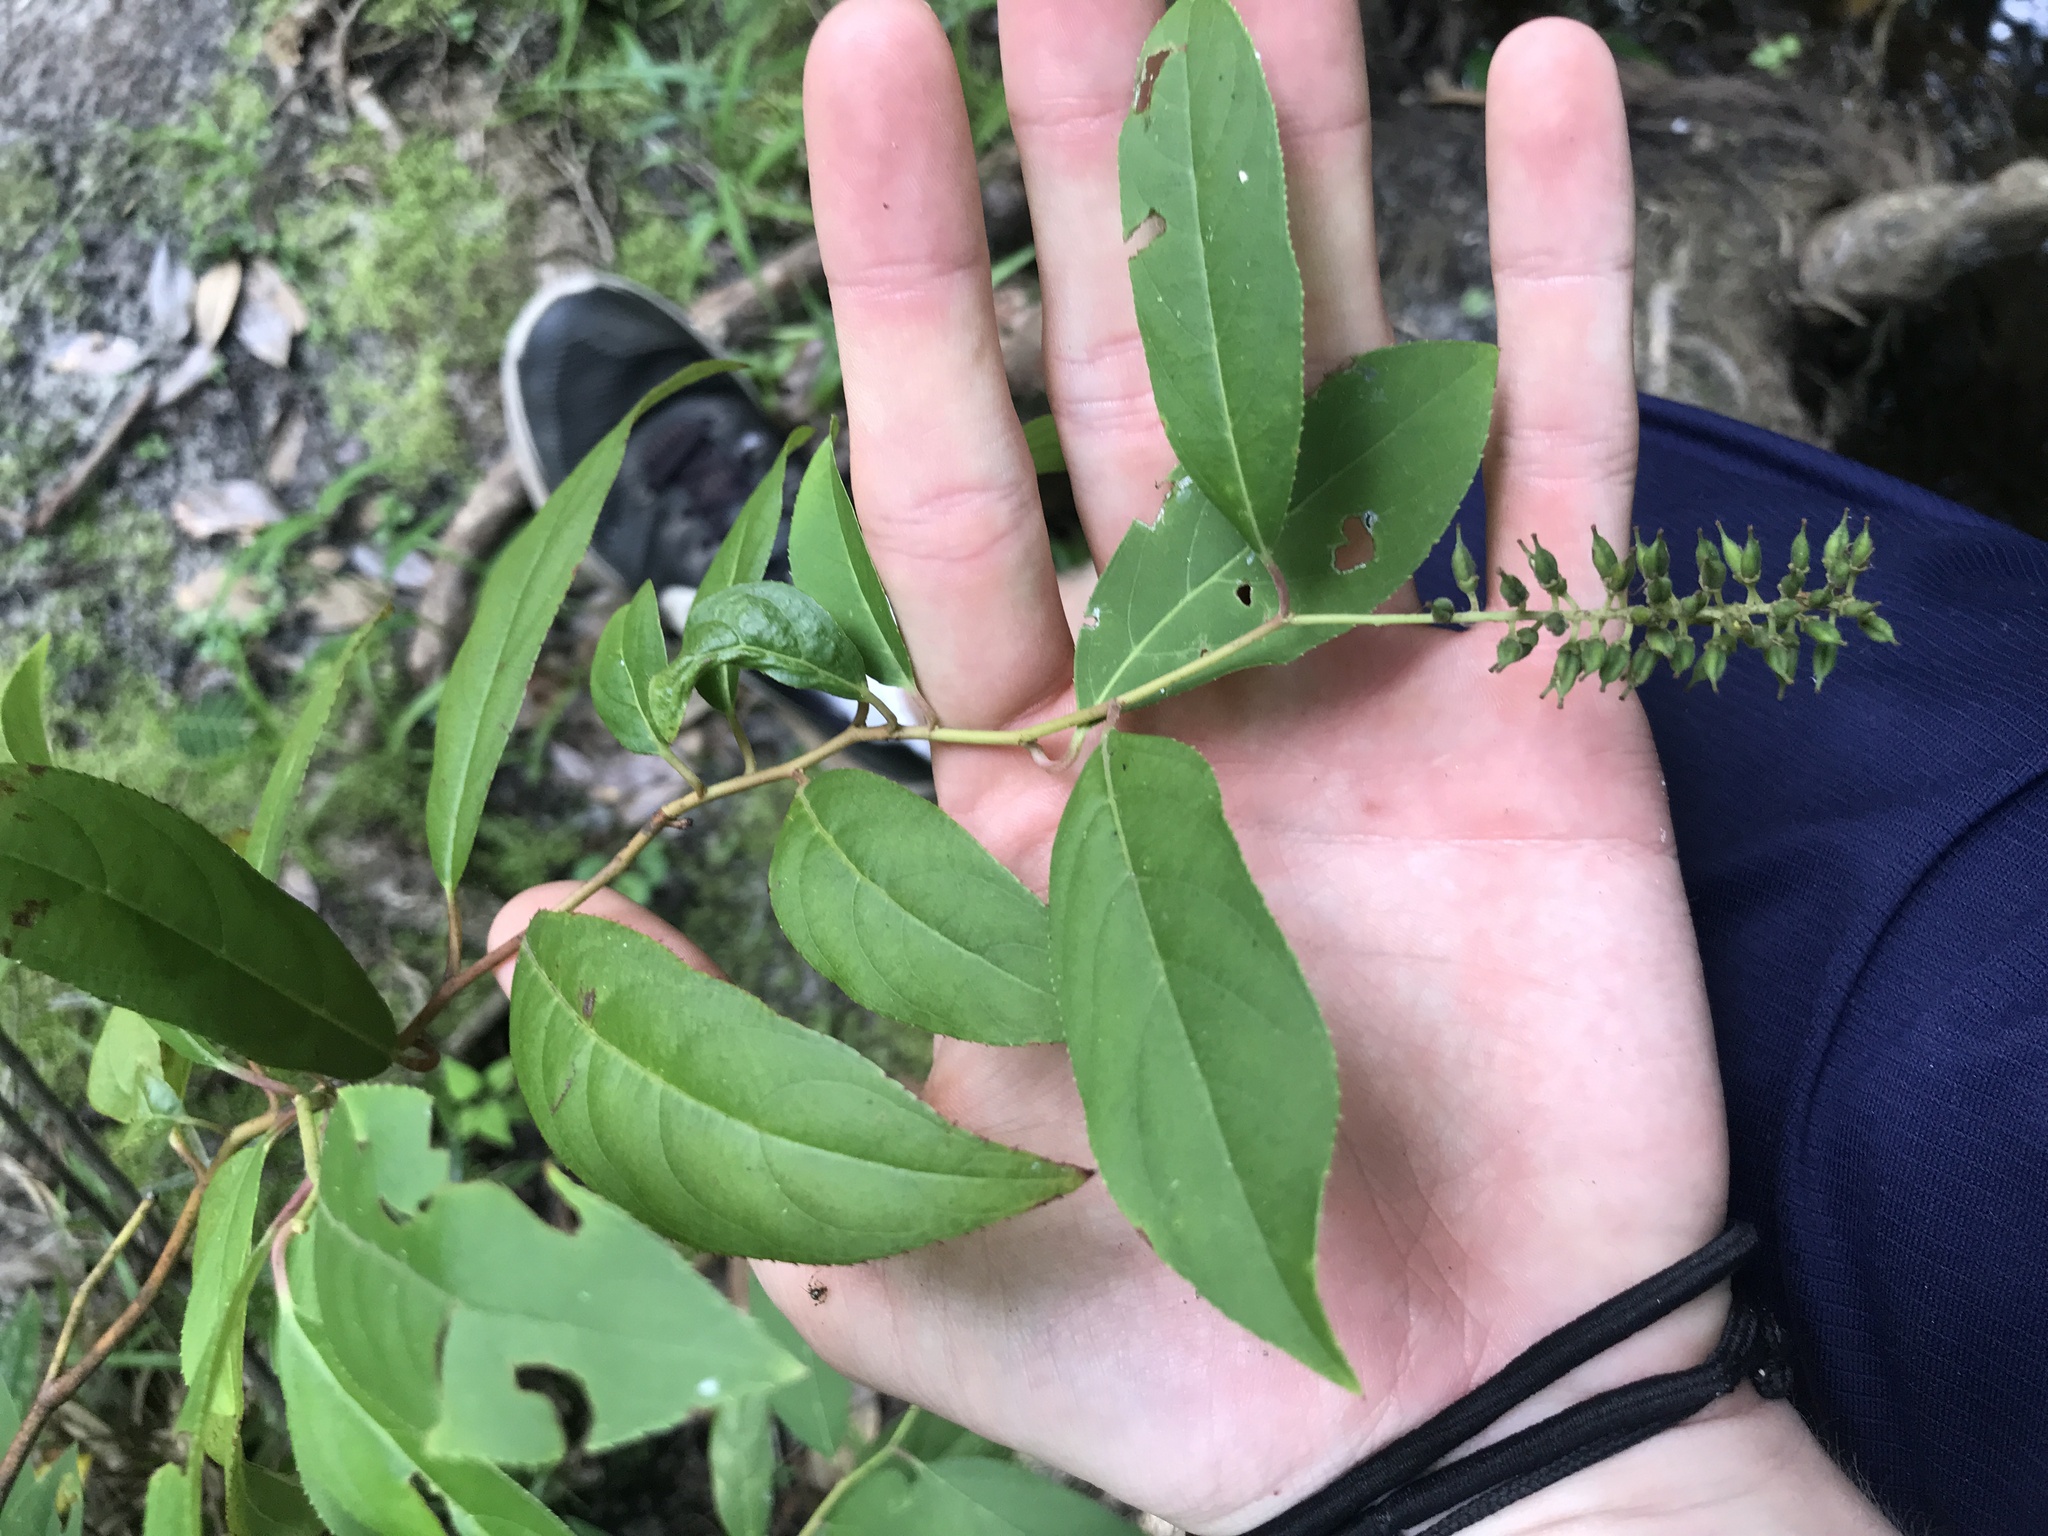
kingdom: Plantae
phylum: Tracheophyta
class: Magnoliopsida
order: Saxifragales
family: Iteaceae
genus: Itea
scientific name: Itea virginica
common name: Sweetspire
